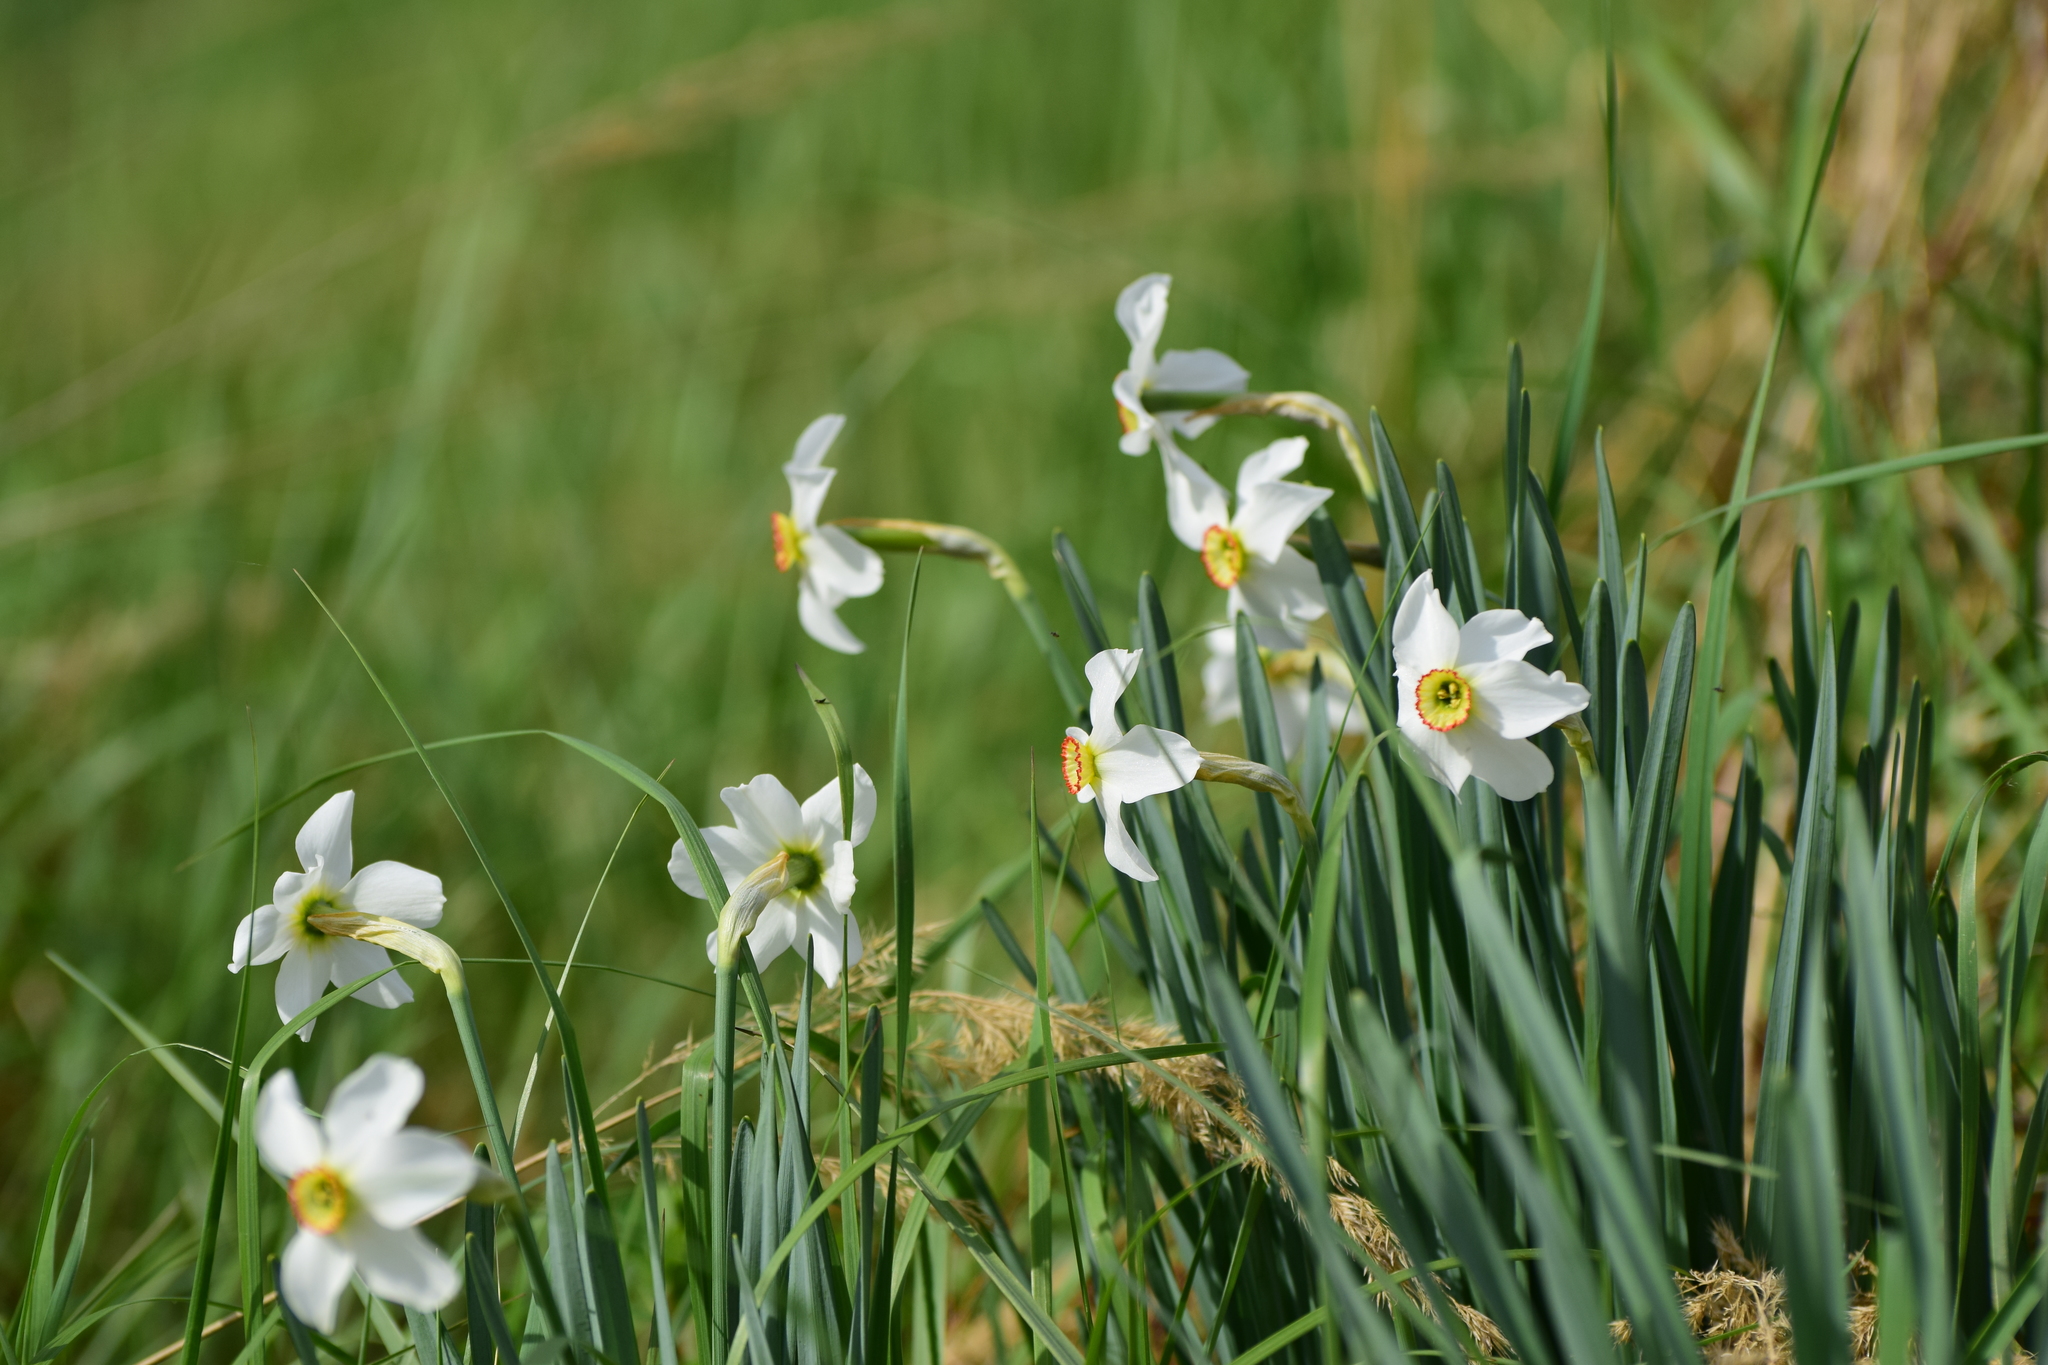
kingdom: Plantae
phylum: Tracheophyta
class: Liliopsida
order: Asparagales
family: Amaryllidaceae
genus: Narcissus
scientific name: Narcissus poeticus
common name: Pheasant's-eye daffodil
